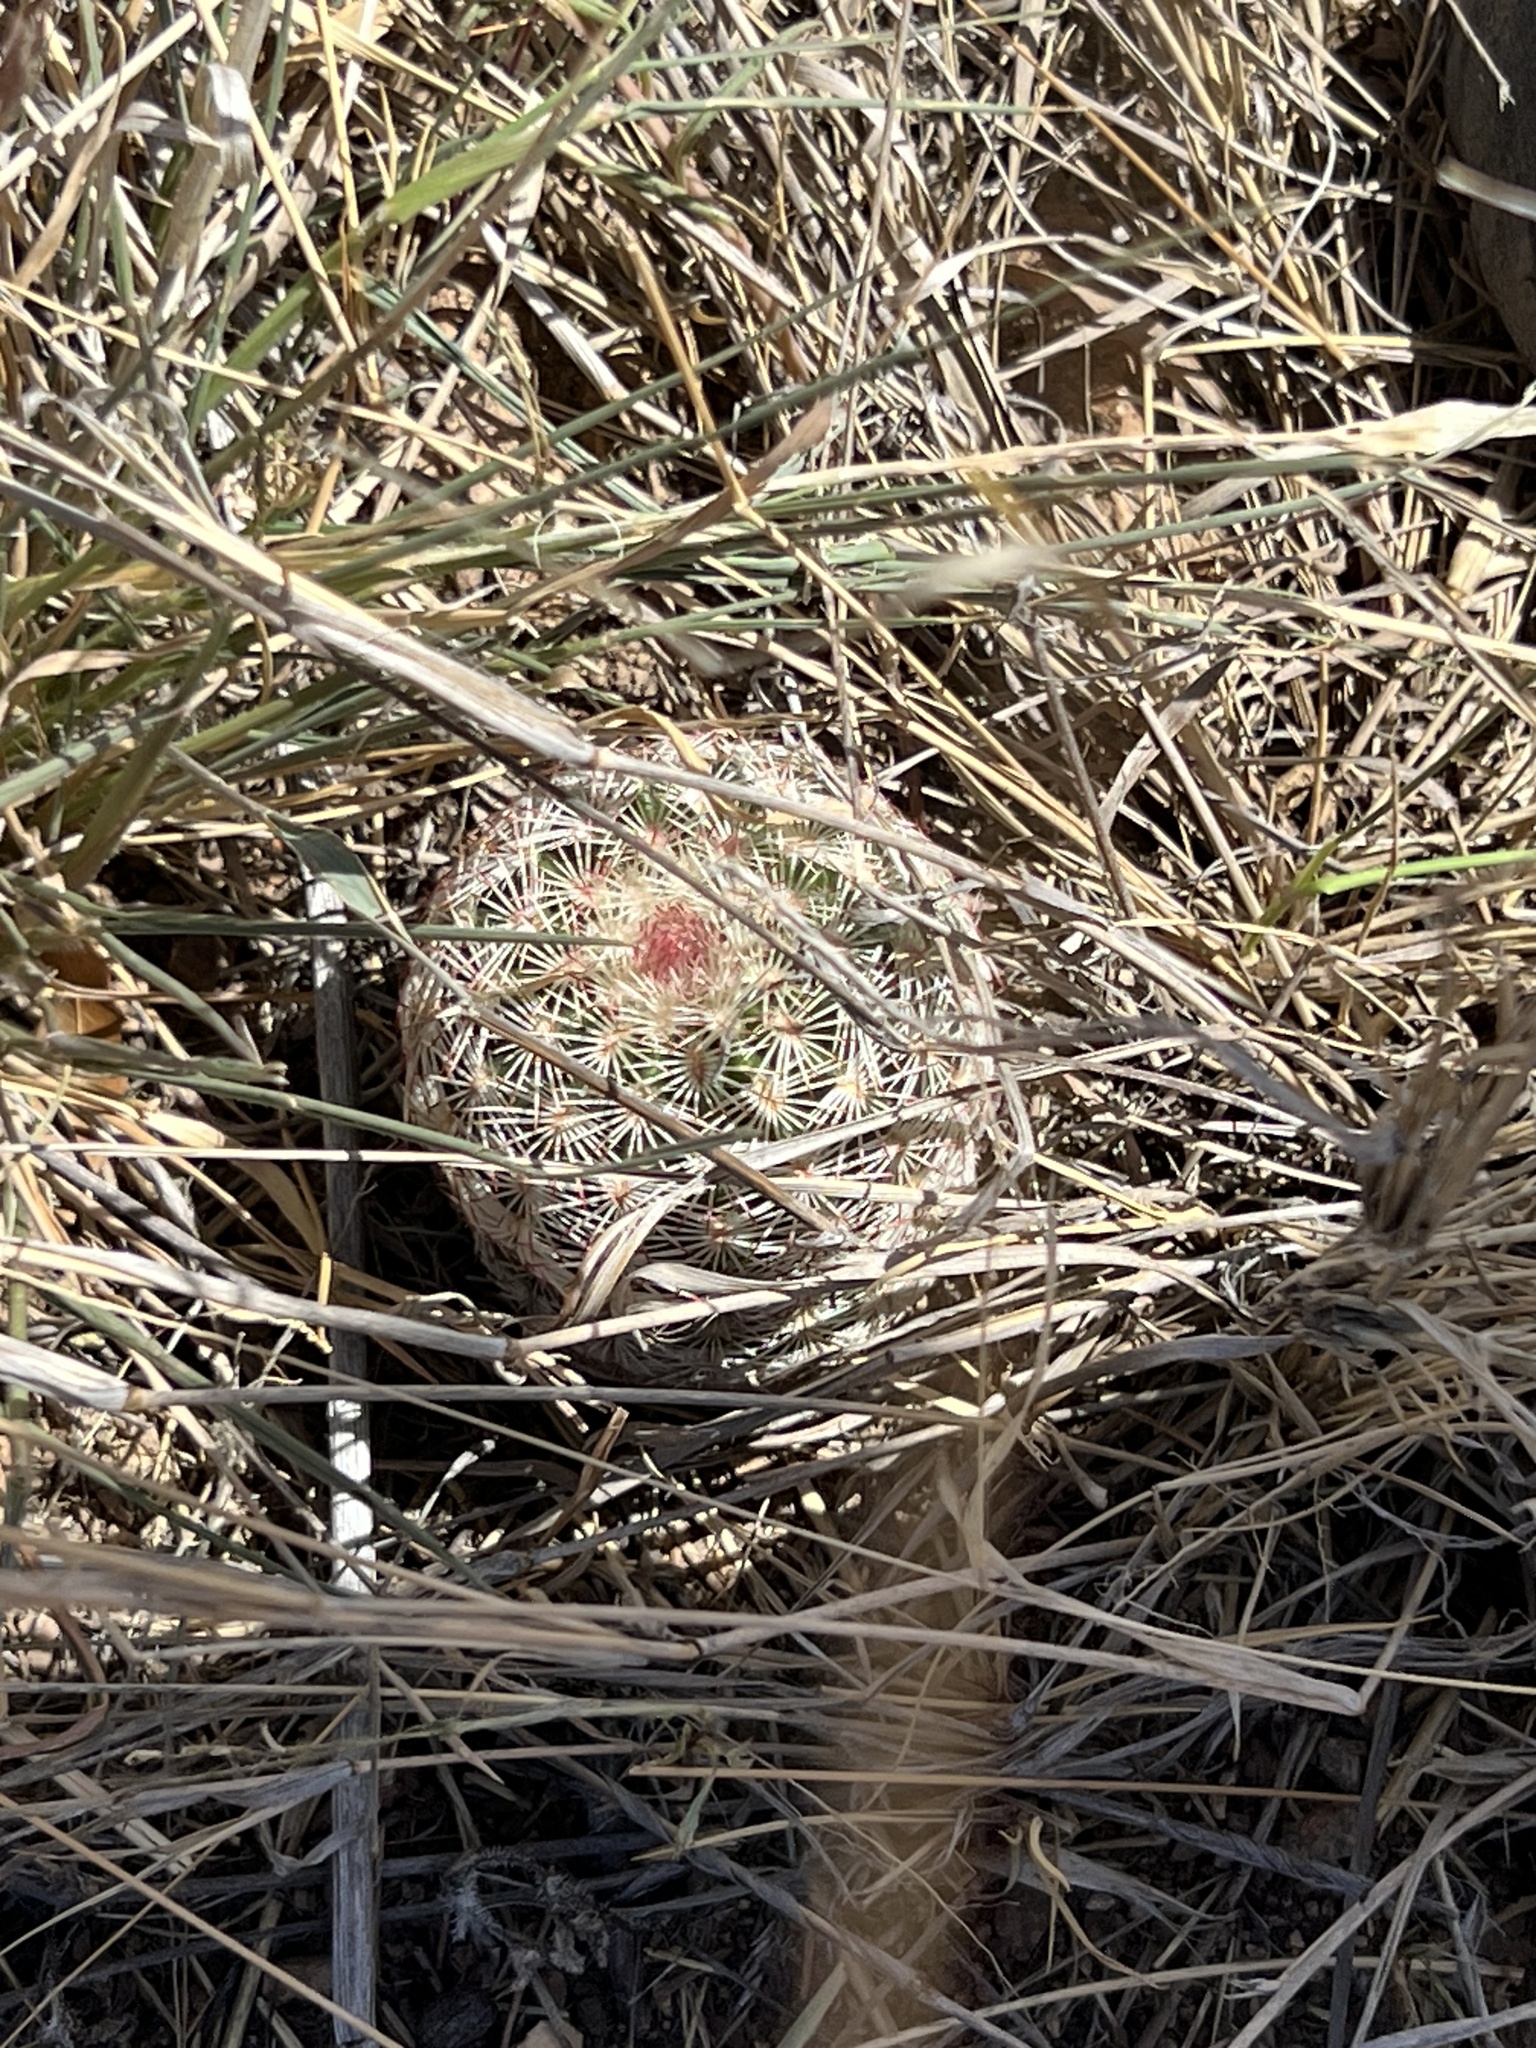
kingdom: Plantae
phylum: Tracheophyta
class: Magnoliopsida
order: Caryophyllales
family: Cactaceae
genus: Echinocereus
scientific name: Echinocereus rigidissimus
